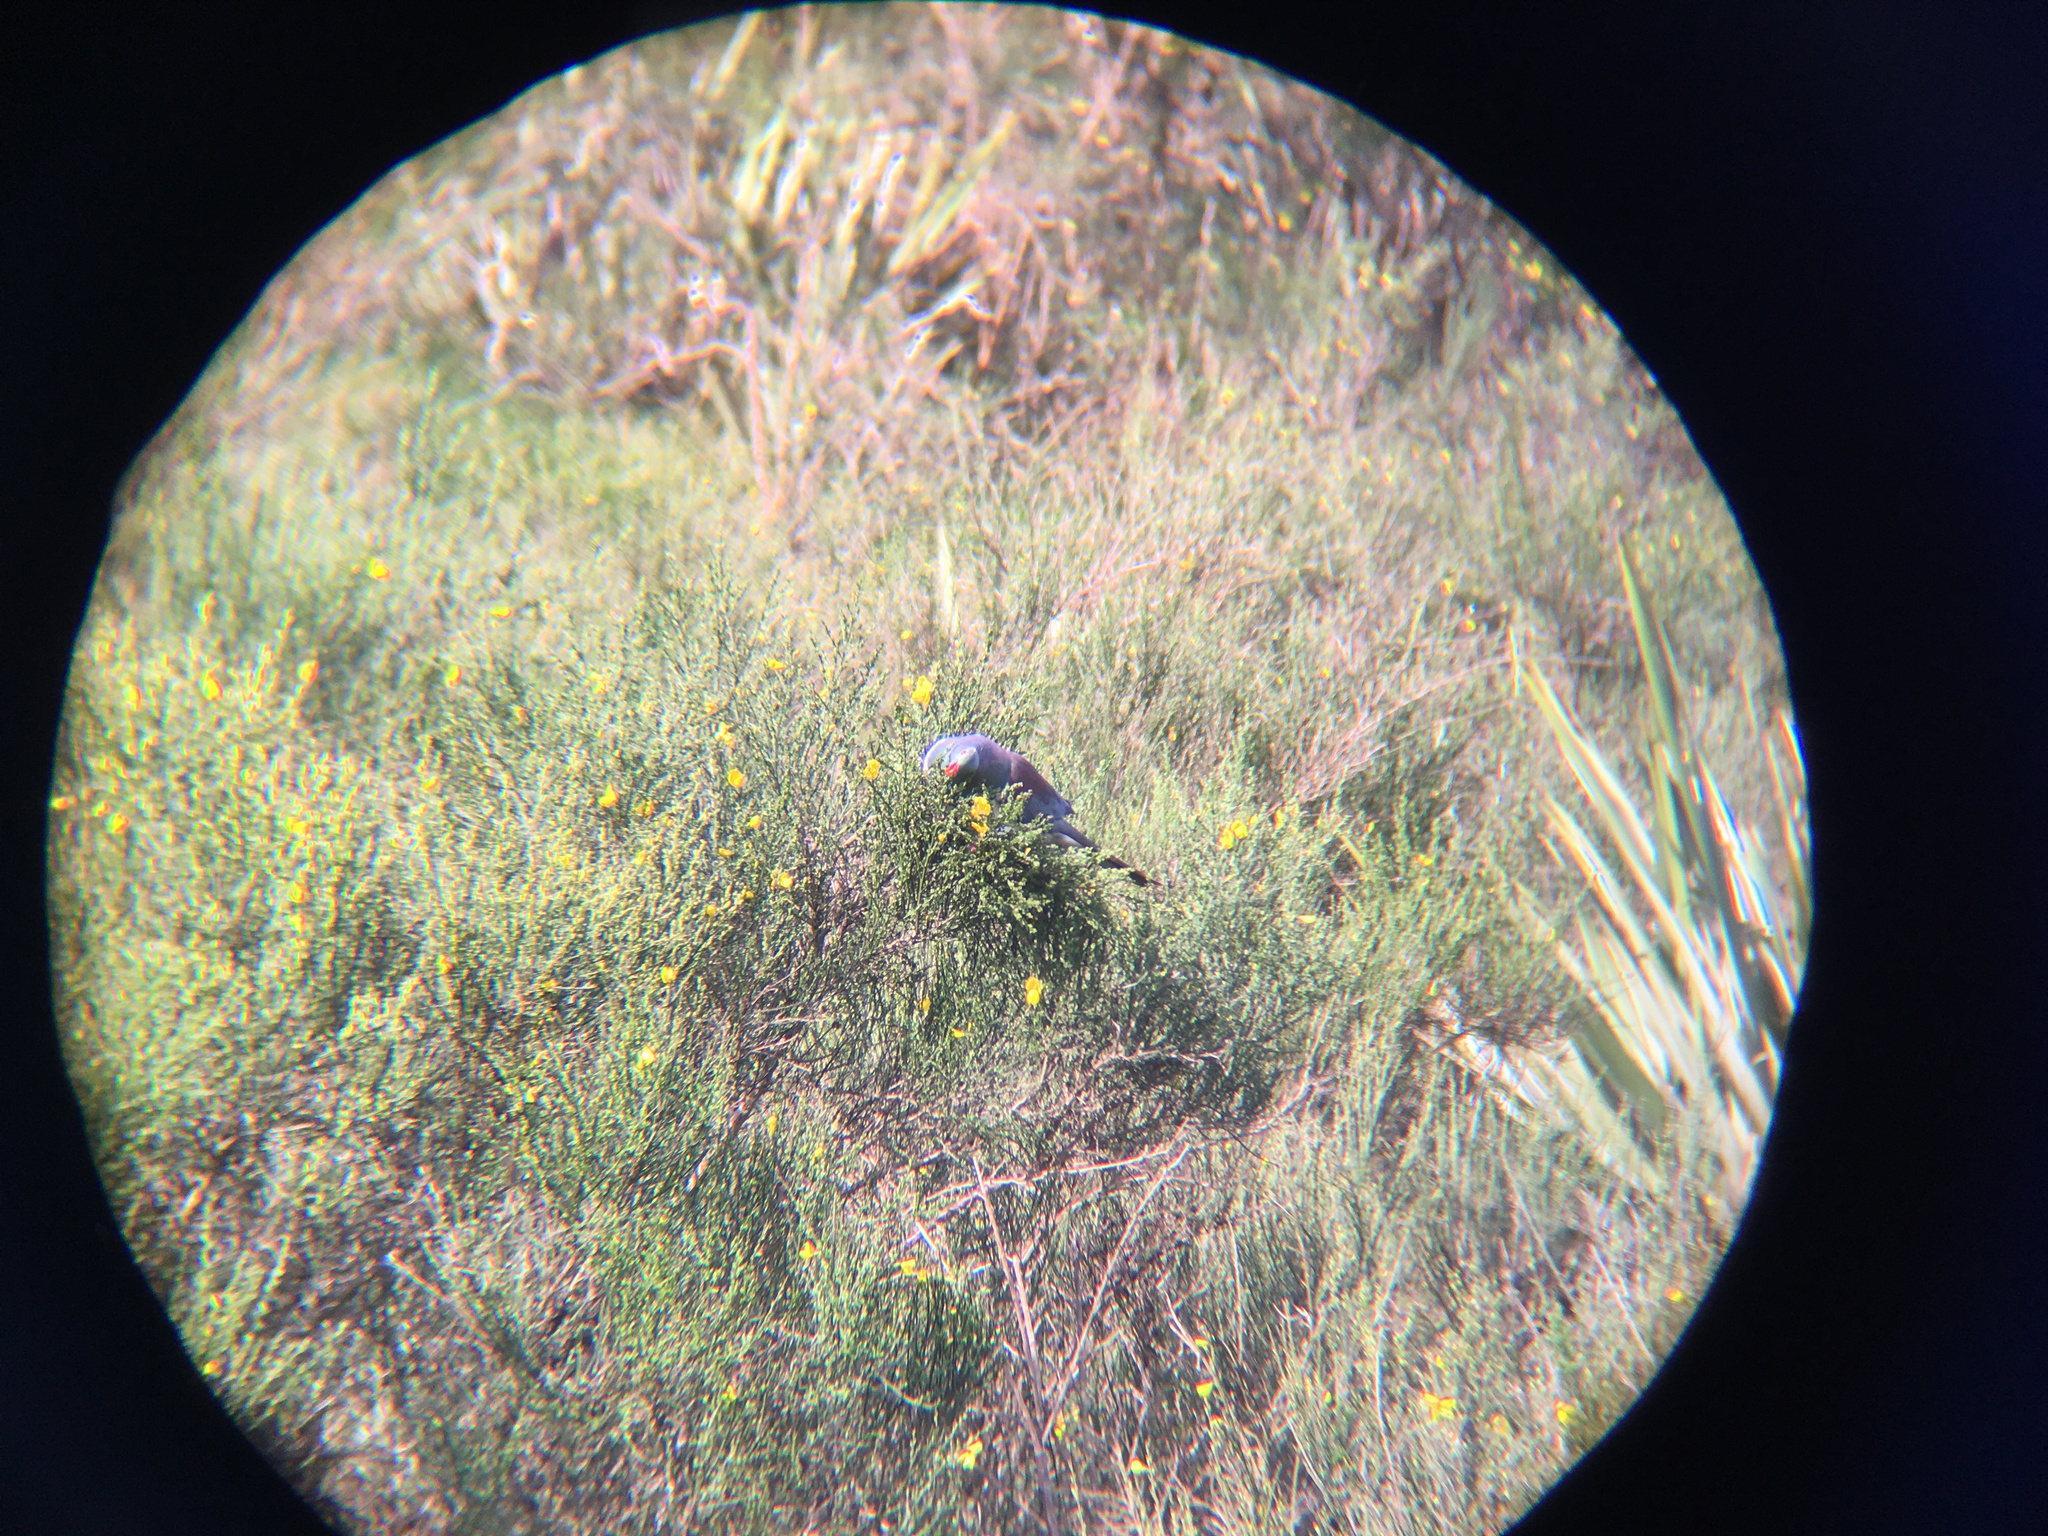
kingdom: Animalia
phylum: Chordata
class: Aves
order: Columbiformes
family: Columbidae
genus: Hemiphaga
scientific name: Hemiphaga novaeseelandiae
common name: New zealand pigeon
